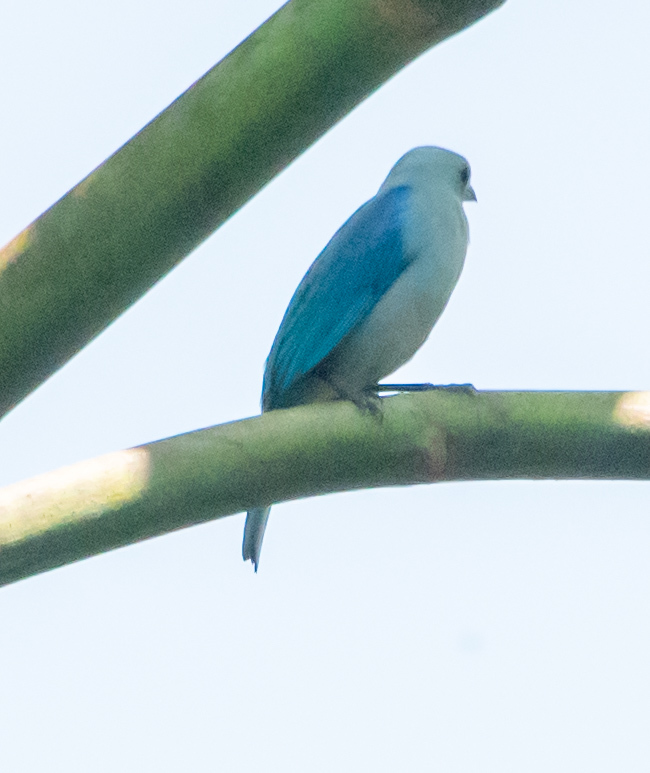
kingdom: Animalia
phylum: Chordata
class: Aves
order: Passeriformes
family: Thraupidae
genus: Thraupis
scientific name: Thraupis episcopus
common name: Blue-grey tanager
